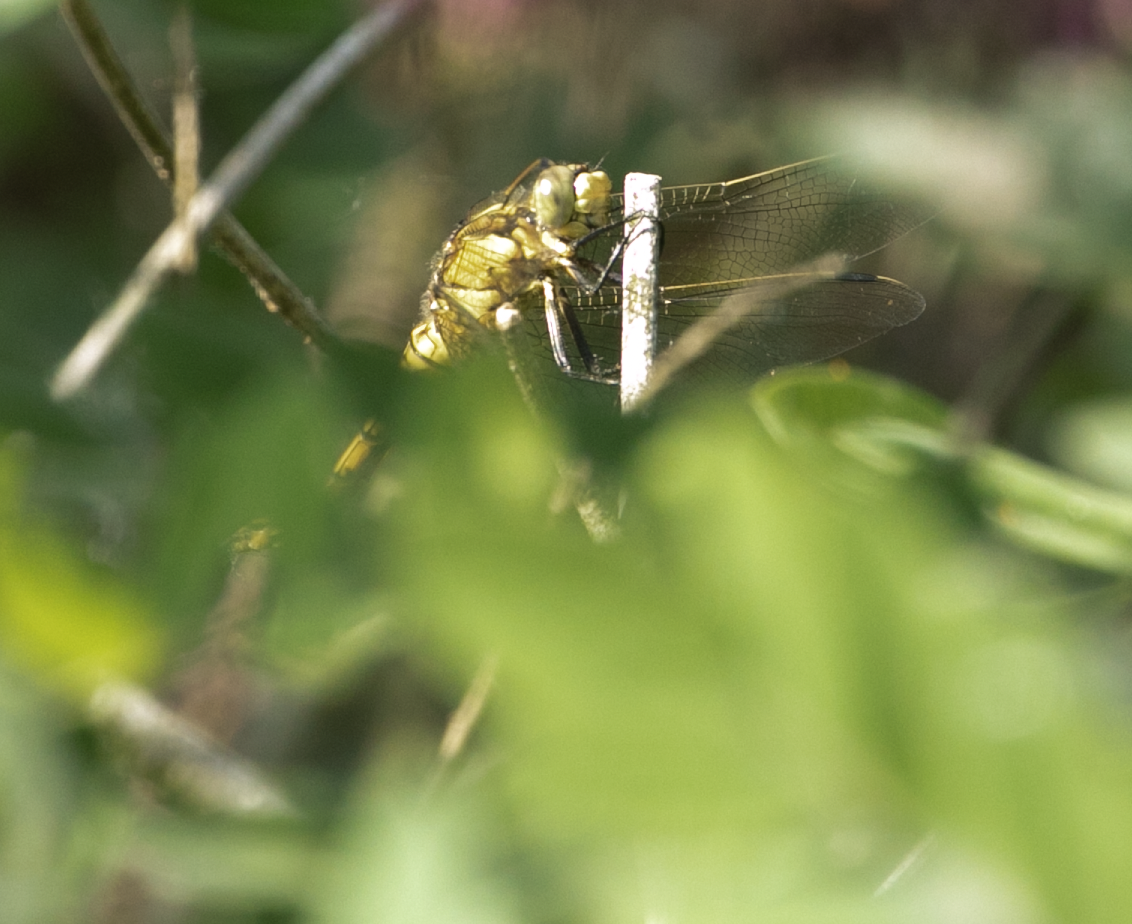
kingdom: Animalia
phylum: Arthropoda
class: Insecta
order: Odonata
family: Libellulidae
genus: Orthetrum
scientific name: Orthetrum cancellatum
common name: Black-tailed skimmer
